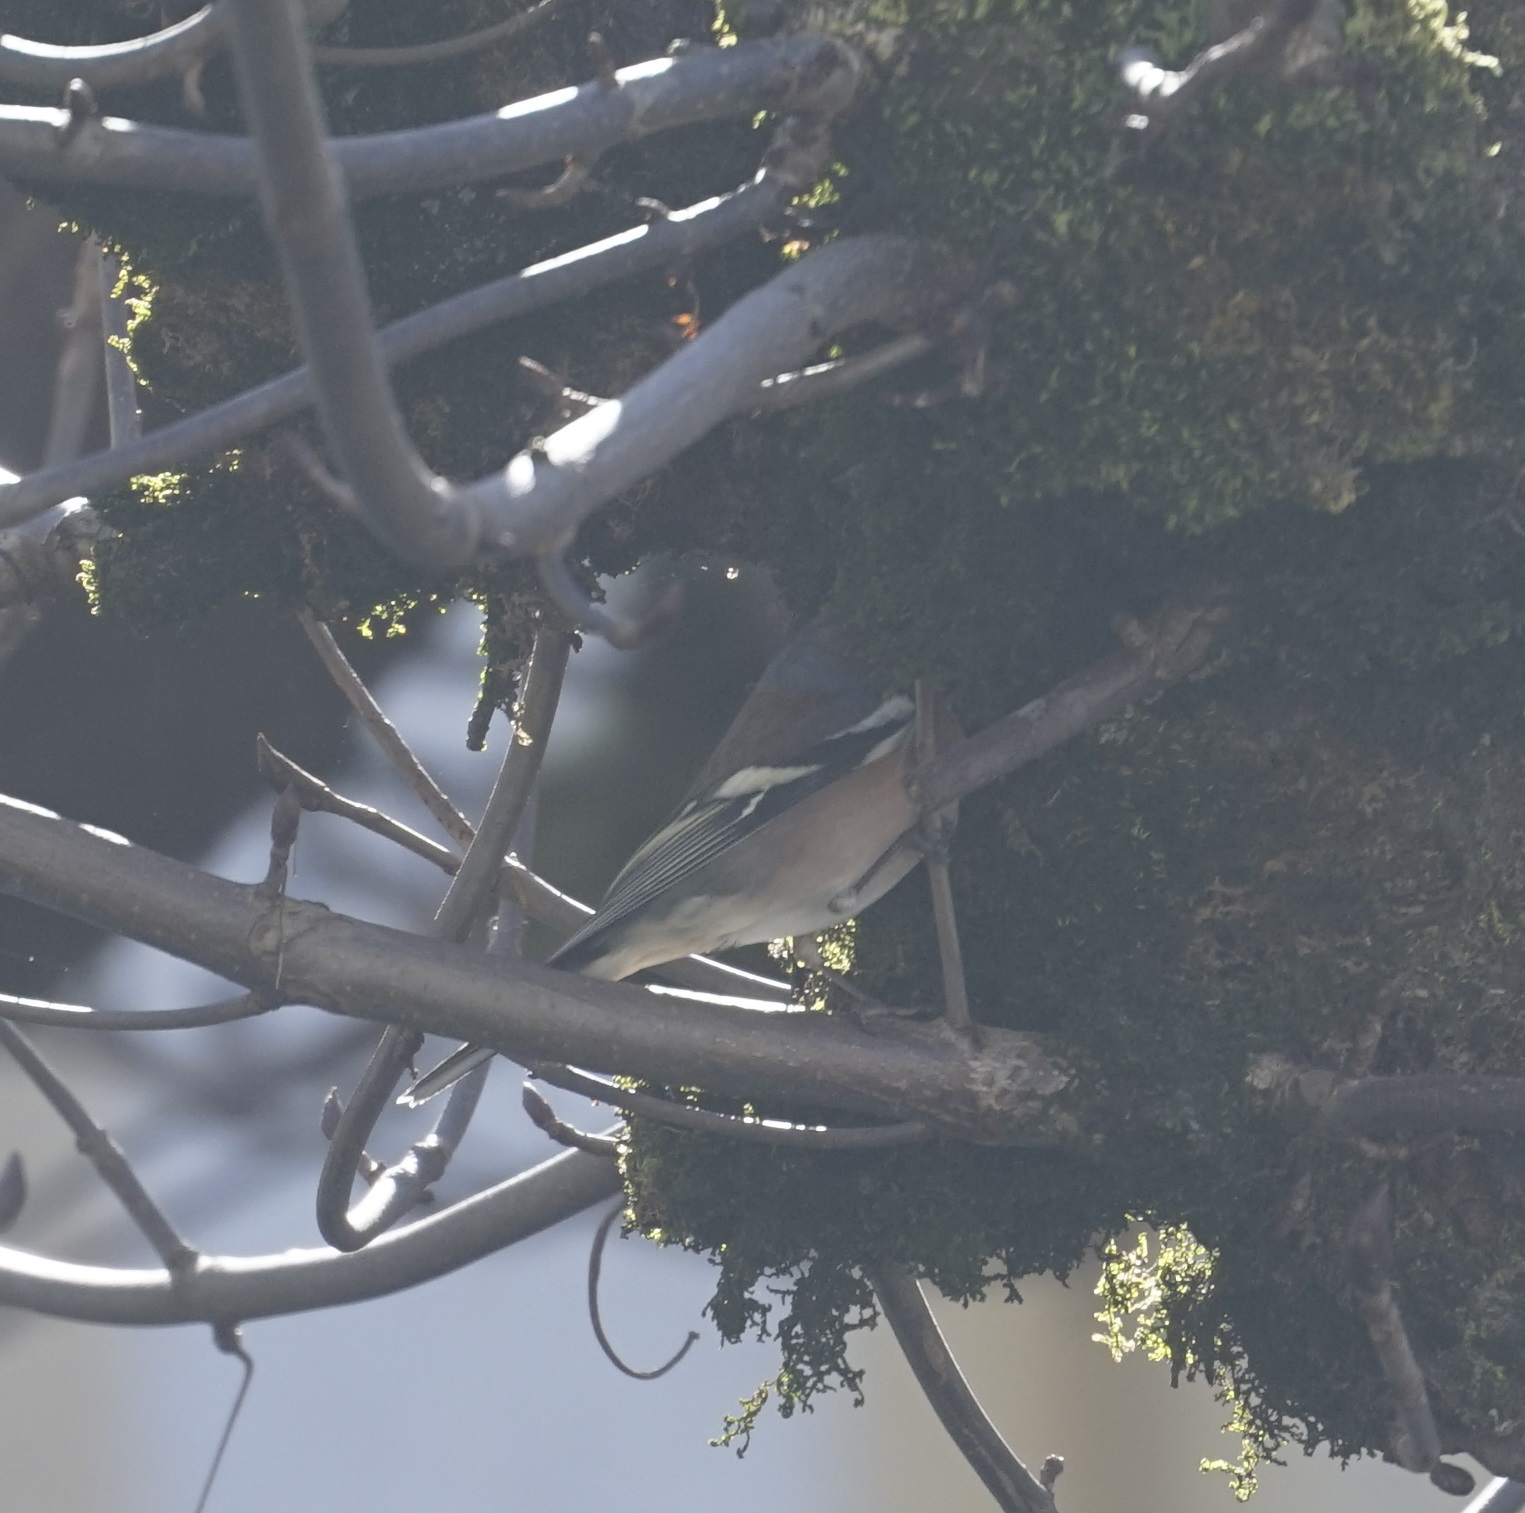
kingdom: Animalia
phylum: Chordata
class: Aves
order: Passeriformes
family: Fringillidae
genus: Fringilla
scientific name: Fringilla coelebs
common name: Common chaffinch
